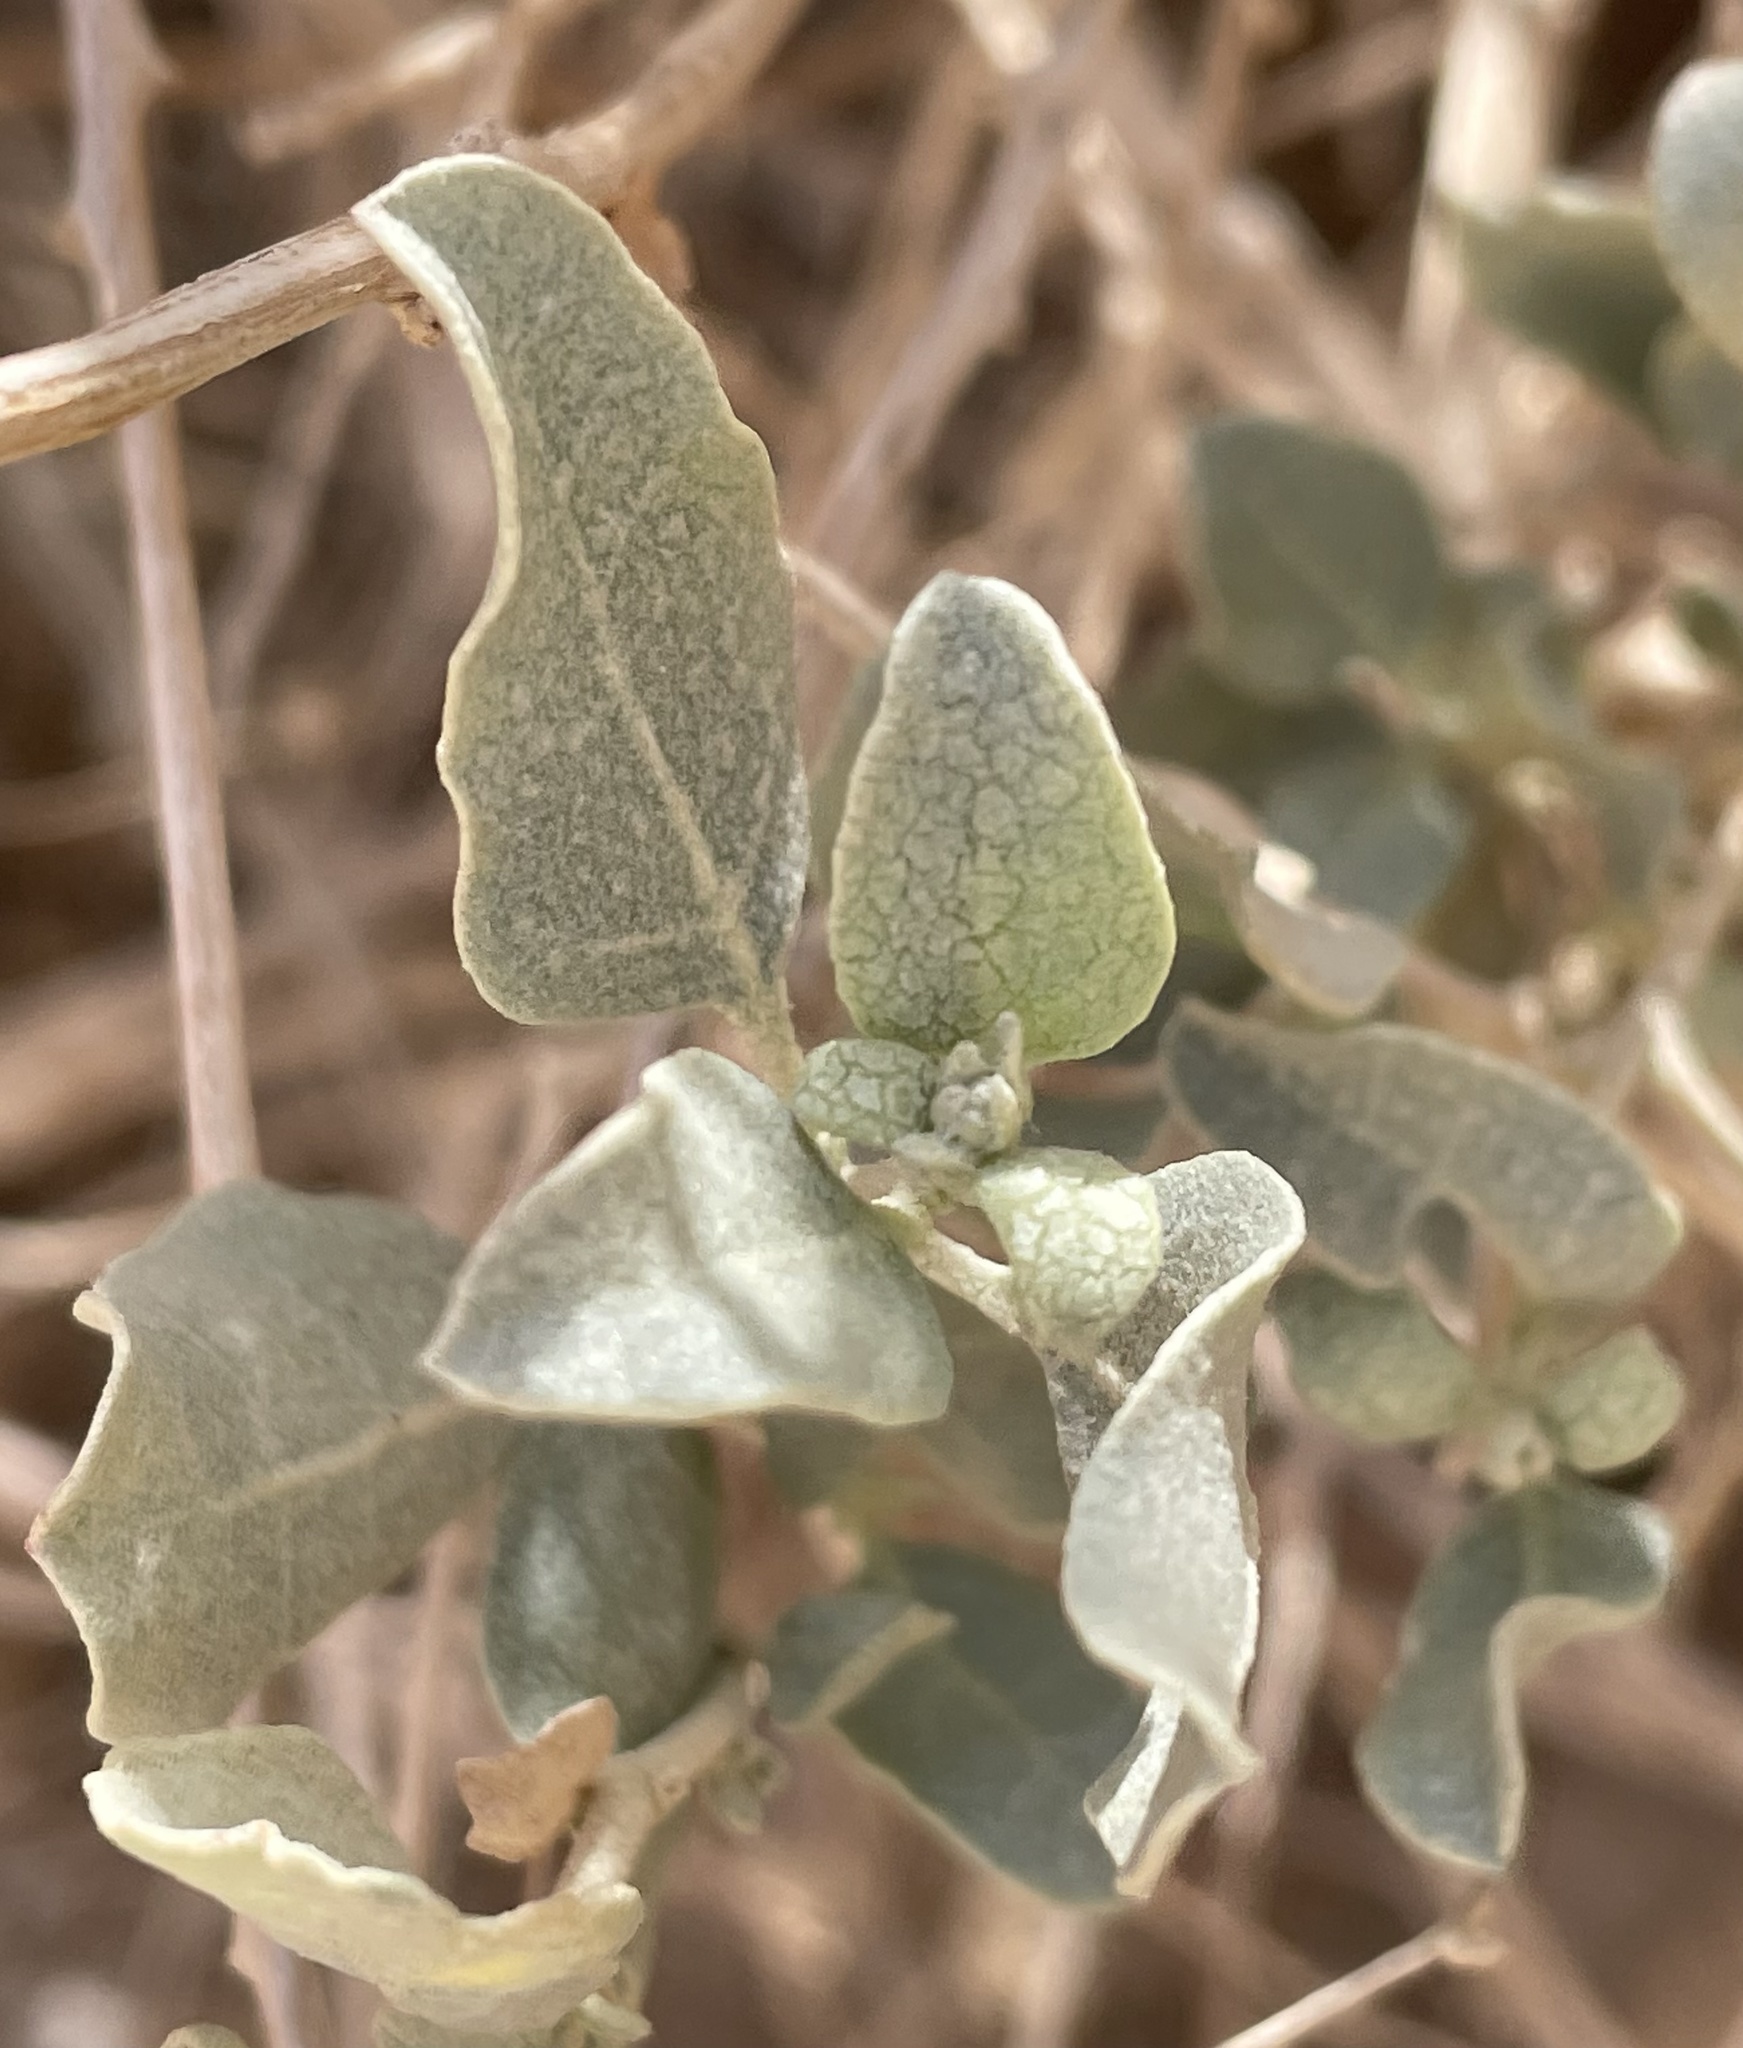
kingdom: Plantae
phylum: Tracheophyta
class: Magnoliopsida
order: Caryophyllales
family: Amaranthaceae
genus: Atriplex
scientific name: Atriplex halimus
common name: Shrubby orache
